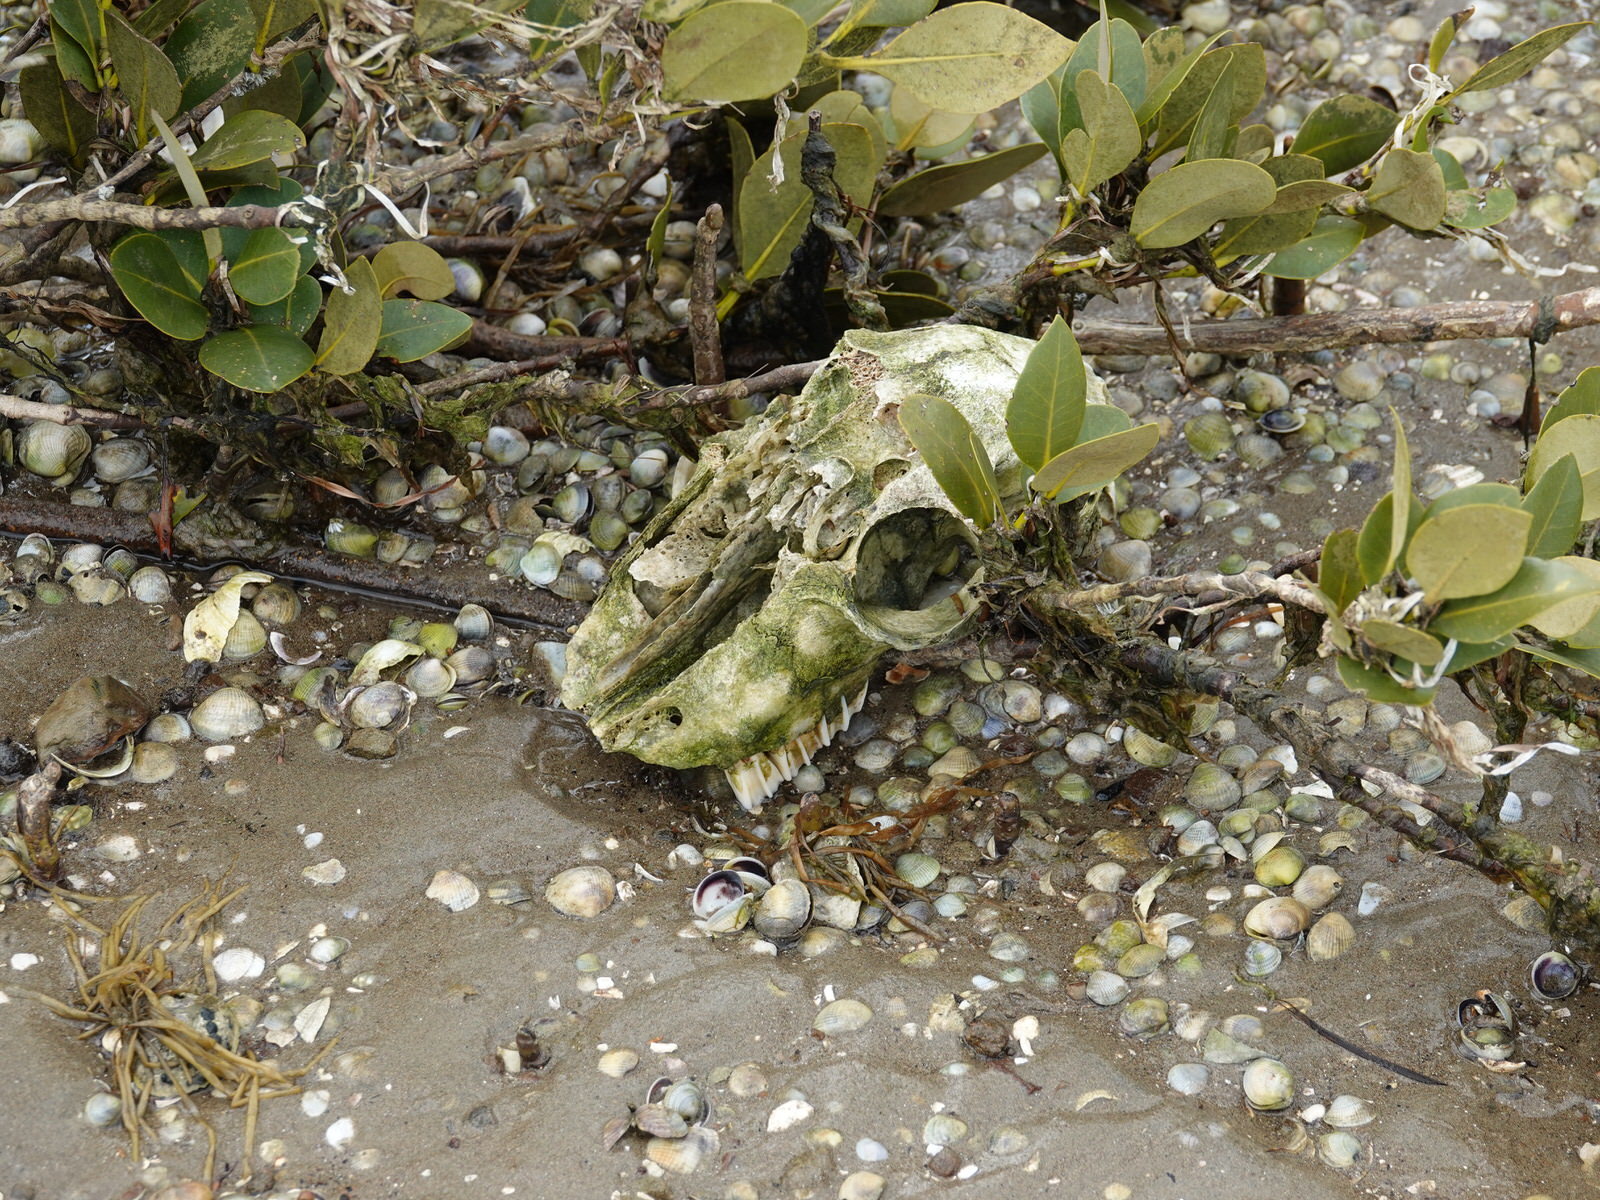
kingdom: Animalia
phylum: Chordata
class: Mammalia
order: Artiodactyla
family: Bovidae
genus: Ovis
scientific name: Ovis aries
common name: Domestic sheep
